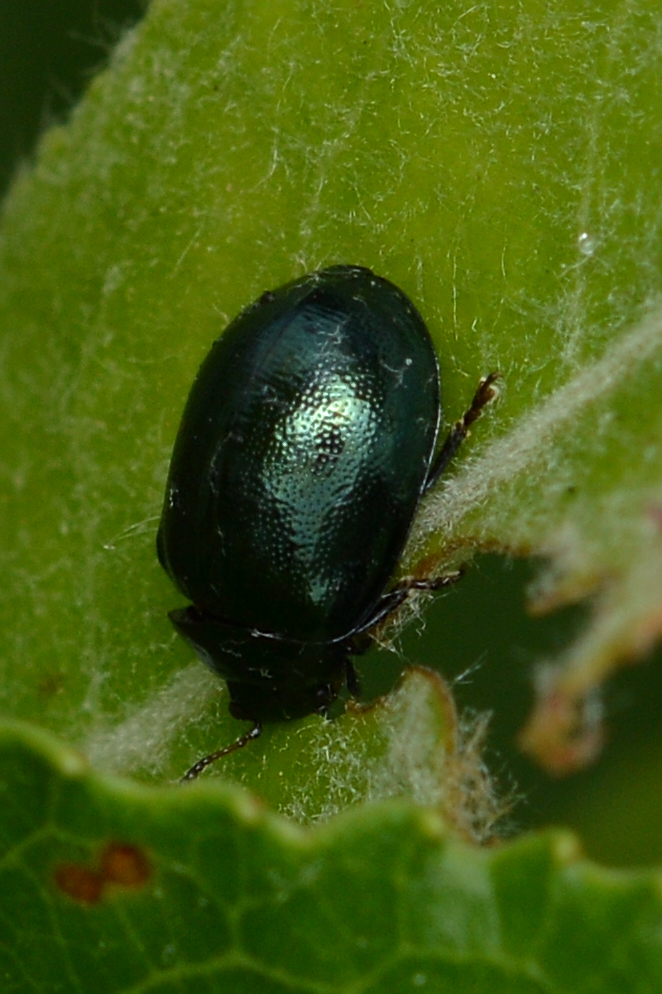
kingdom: Animalia
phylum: Arthropoda
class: Insecta
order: Coleoptera
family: Chrysomelidae
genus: Plagiodera
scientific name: Plagiodera versicolora
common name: Imported willow leaf beetle
